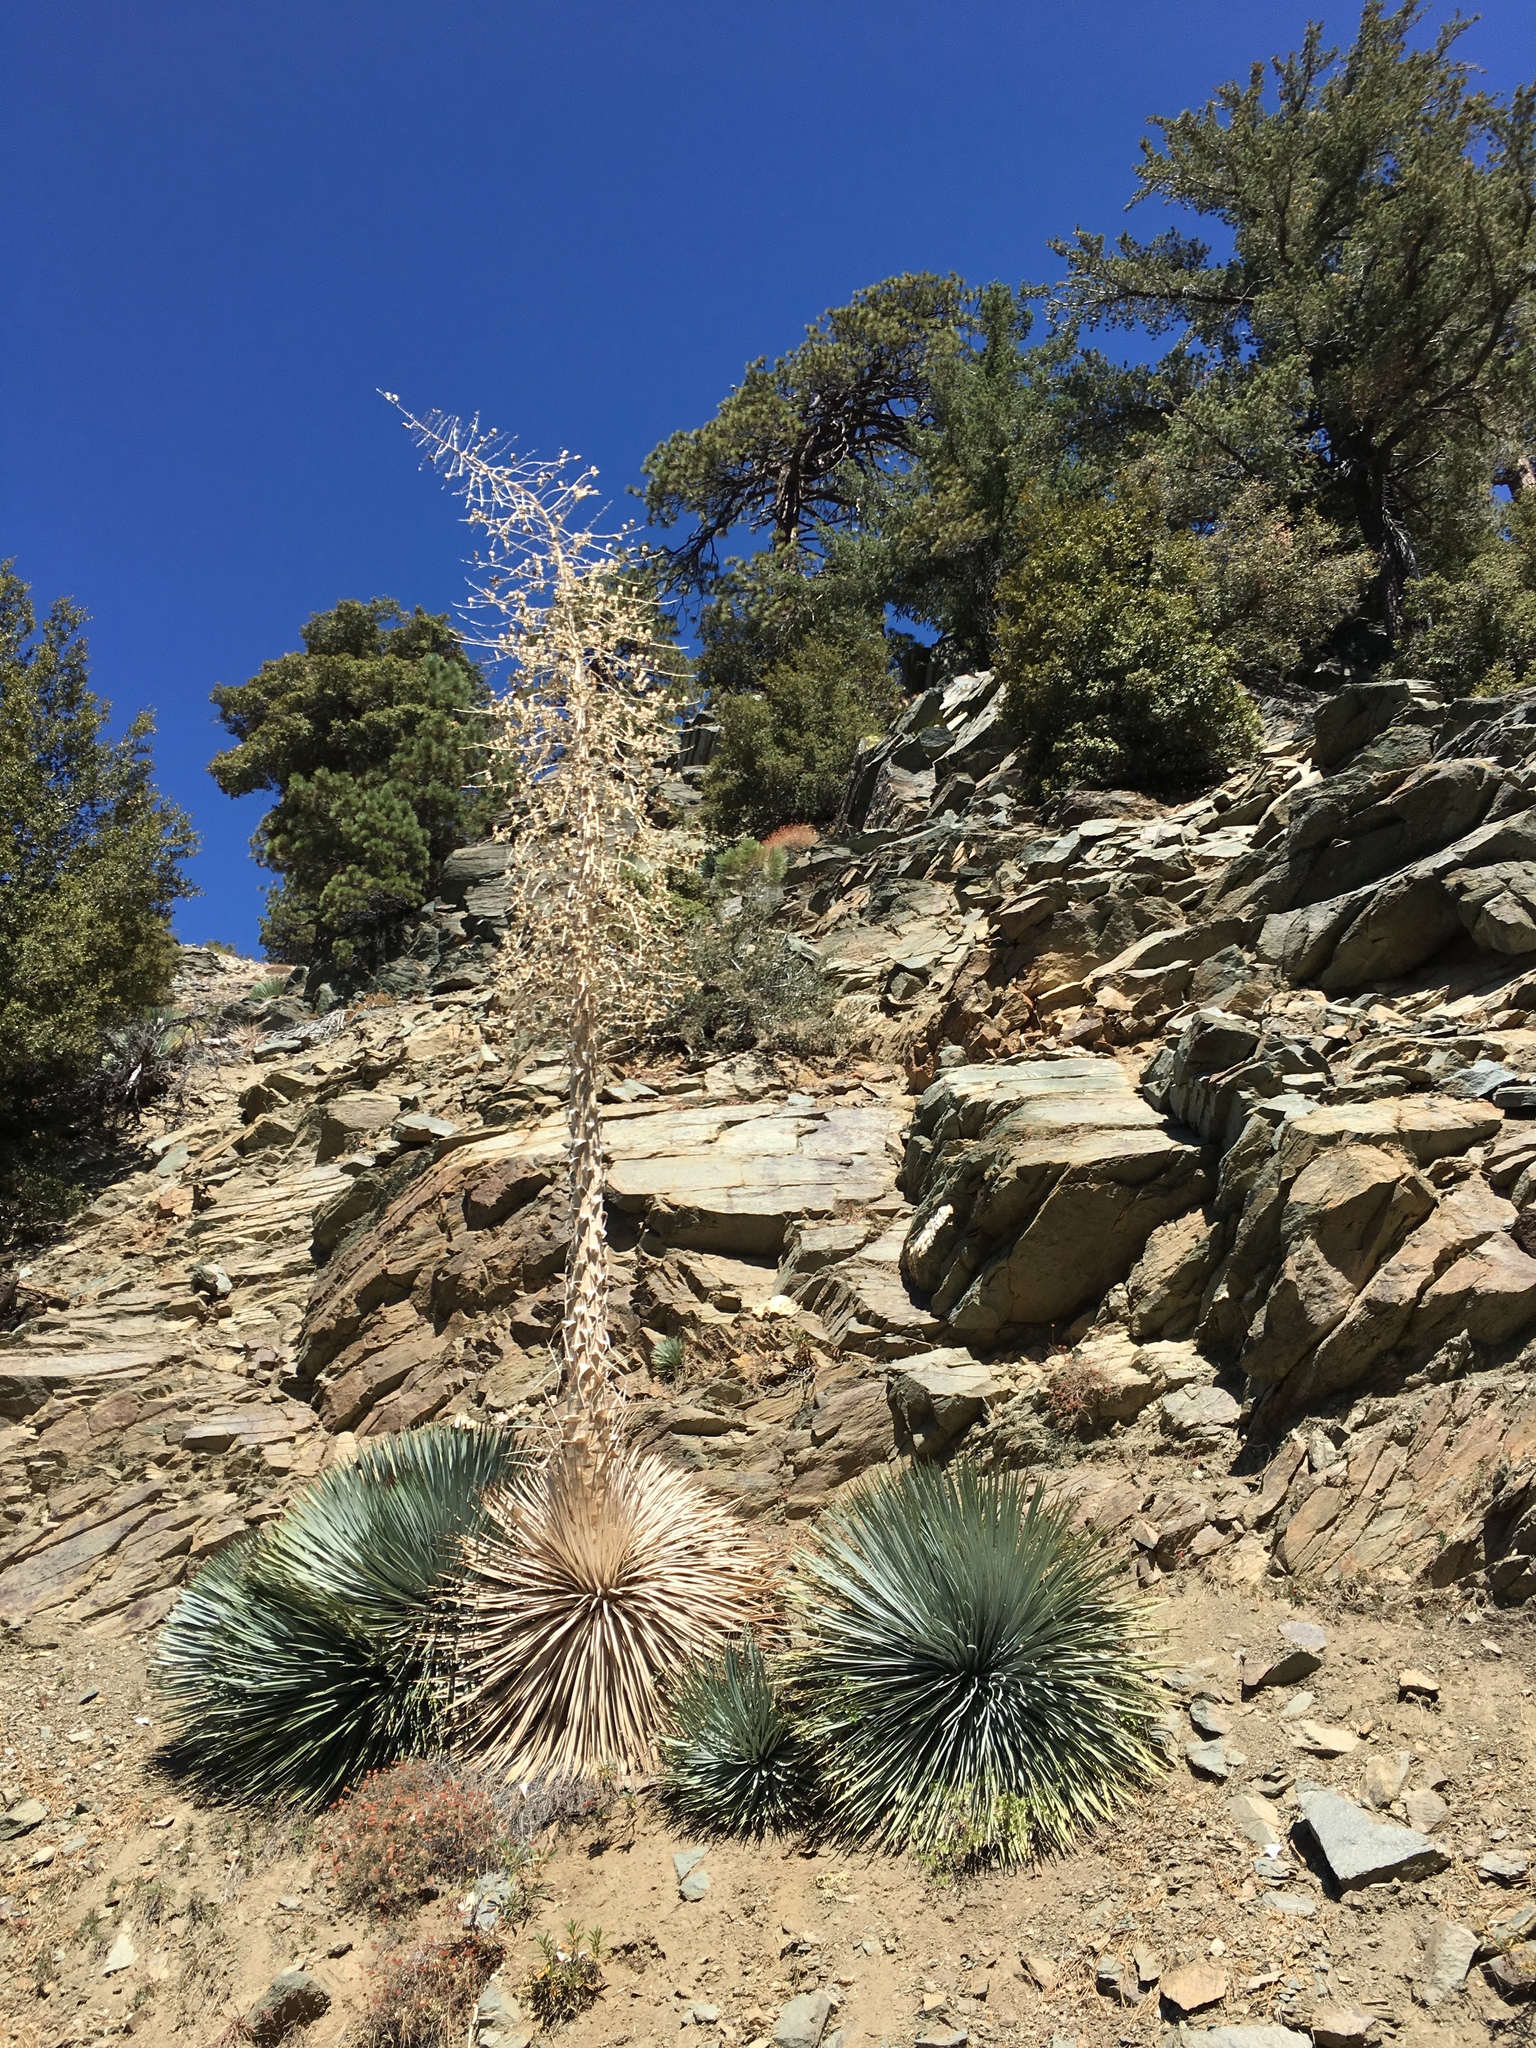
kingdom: Plantae
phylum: Tracheophyta
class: Liliopsida
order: Asparagales
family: Asparagaceae
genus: Hesperoyucca
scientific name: Hesperoyucca whipplei
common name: Our lord's-candle
